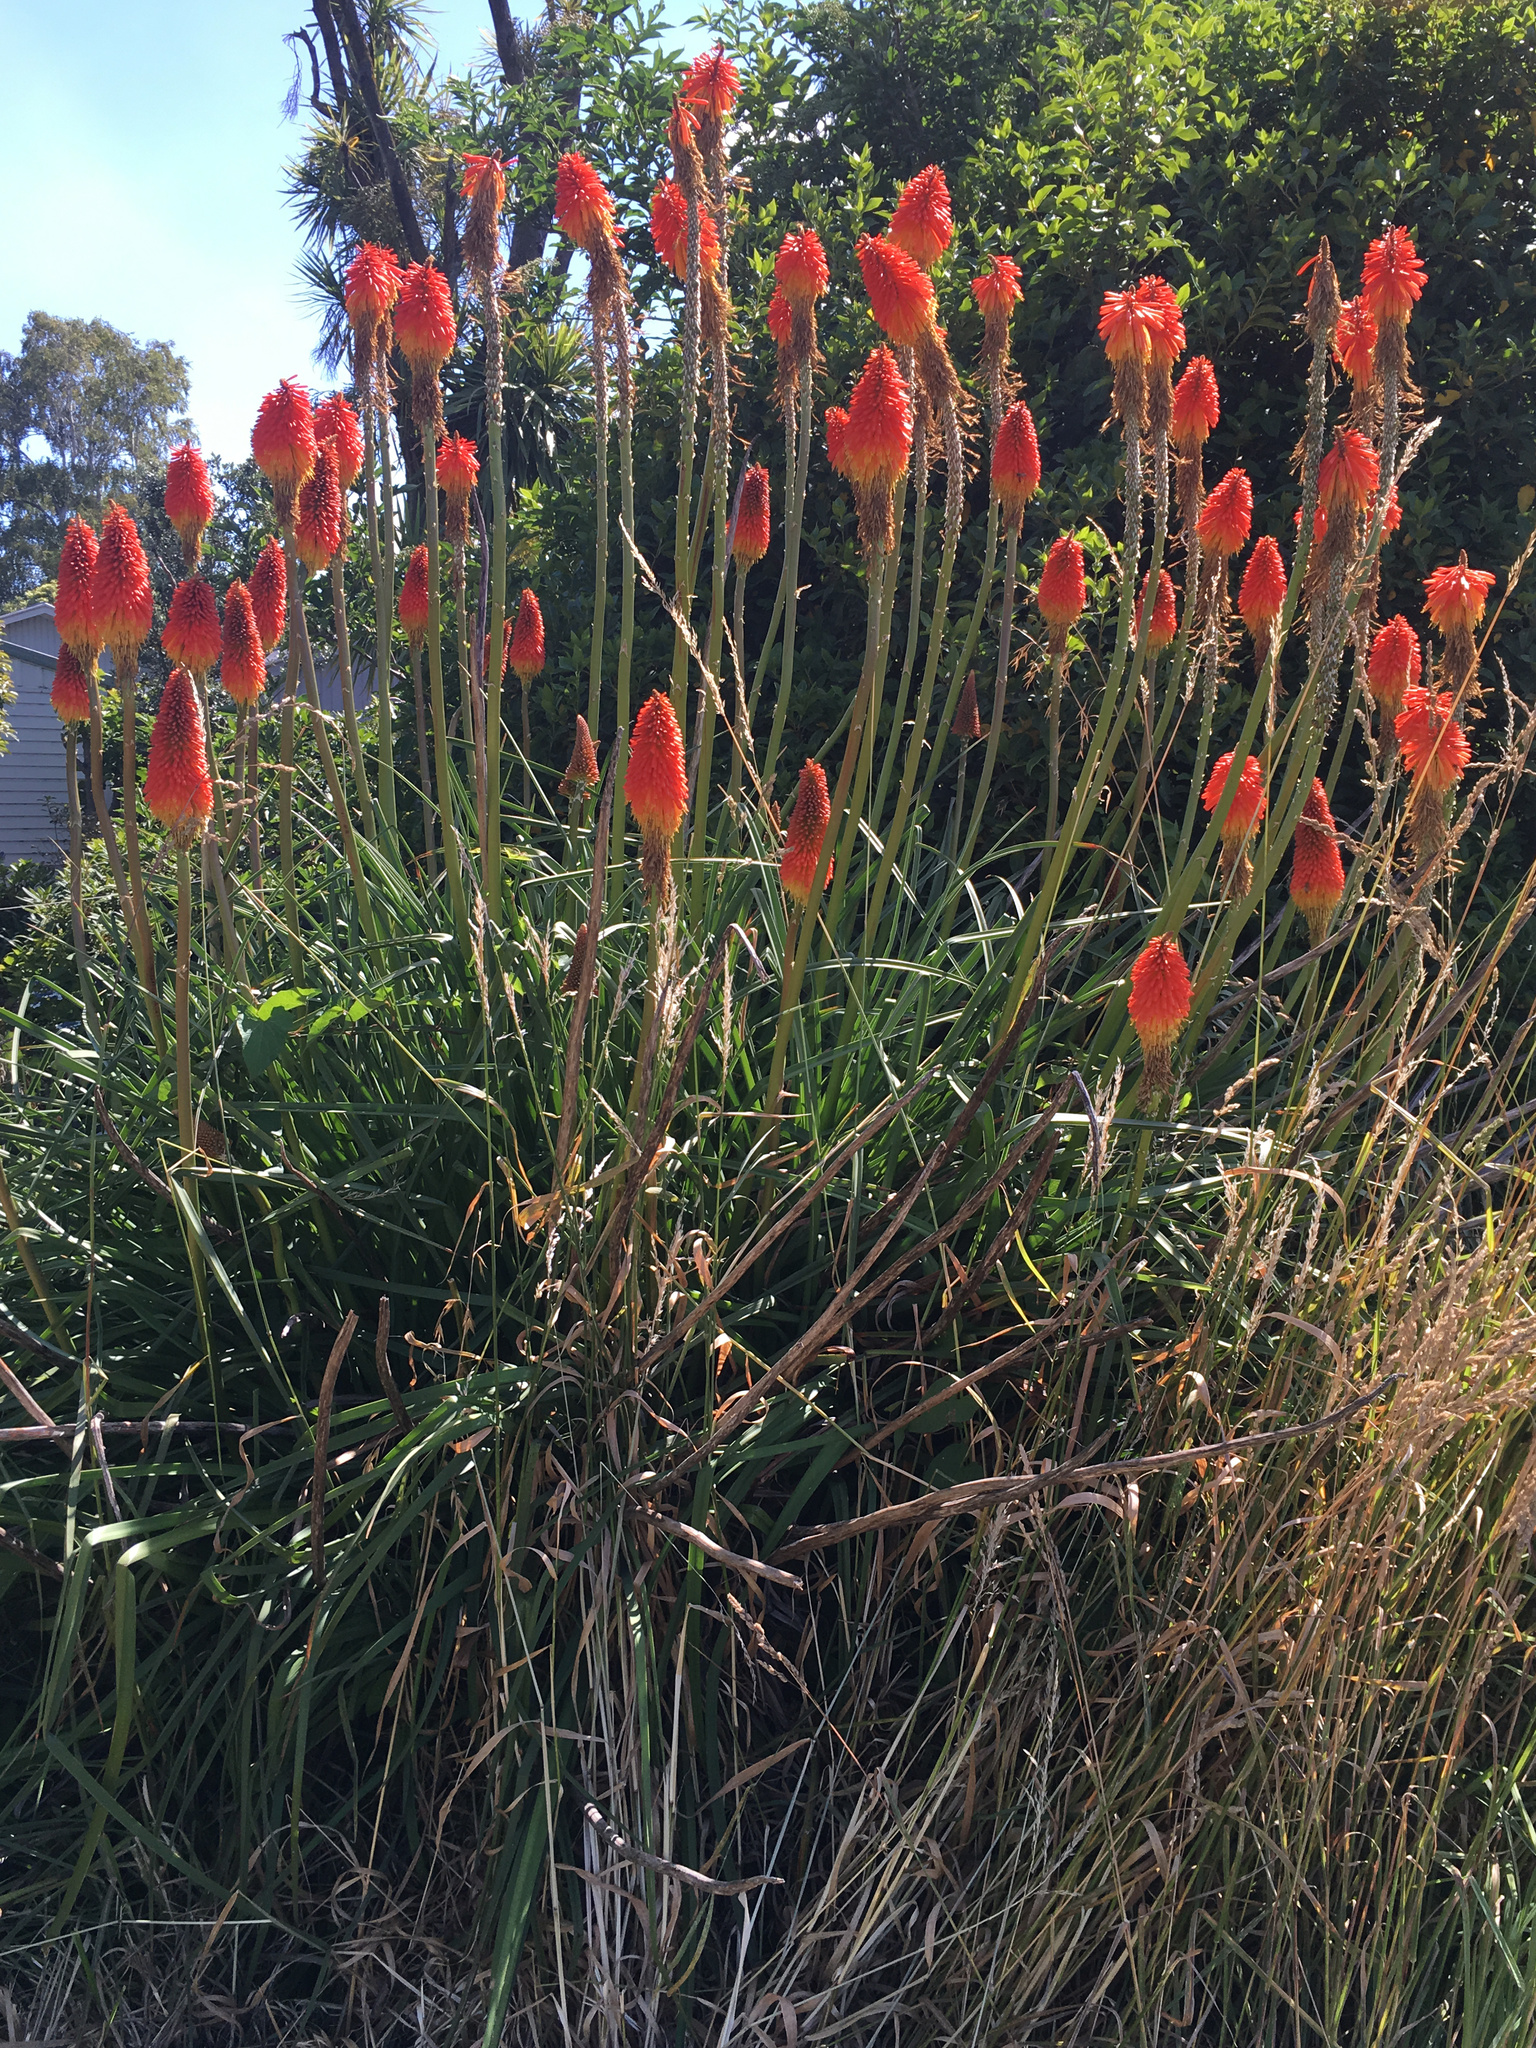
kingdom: Plantae
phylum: Tracheophyta
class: Liliopsida
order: Asparagales
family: Asphodelaceae
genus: Kniphofia
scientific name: Kniphofia uvaria
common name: Red-hot-poker
